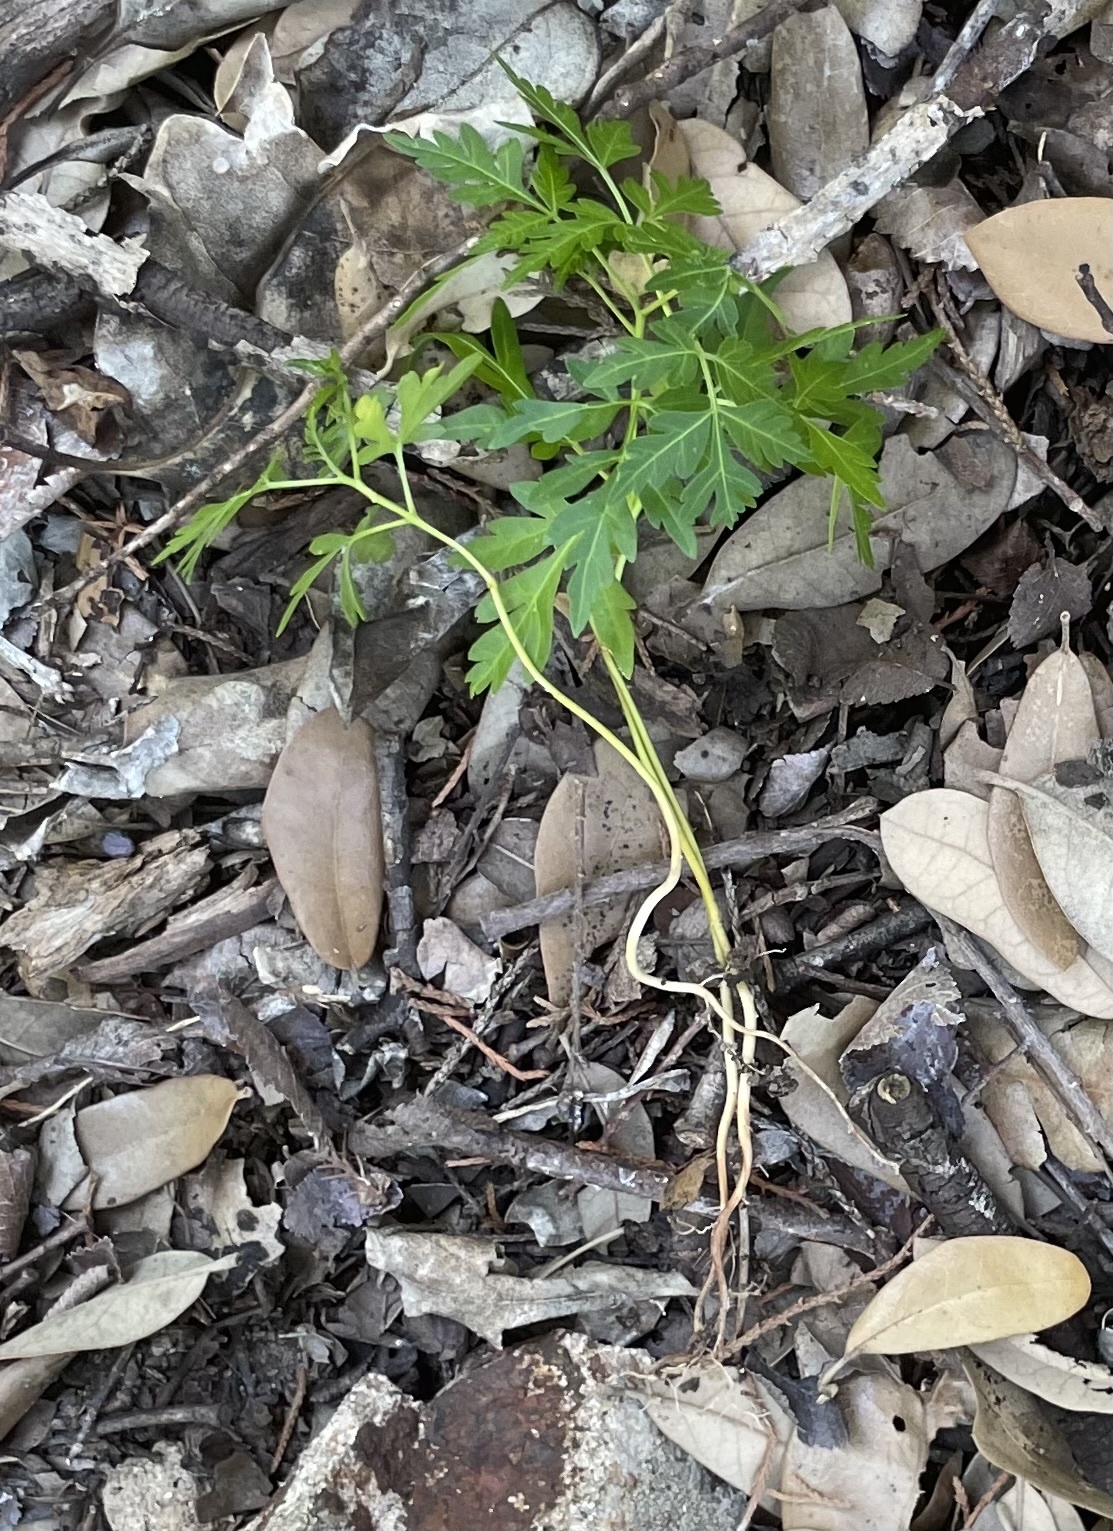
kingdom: Plantae
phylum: Tracheophyta
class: Magnoliopsida
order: Sapindales
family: Meliaceae
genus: Melia
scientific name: Melia azedarach
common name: Chinaberrytree
